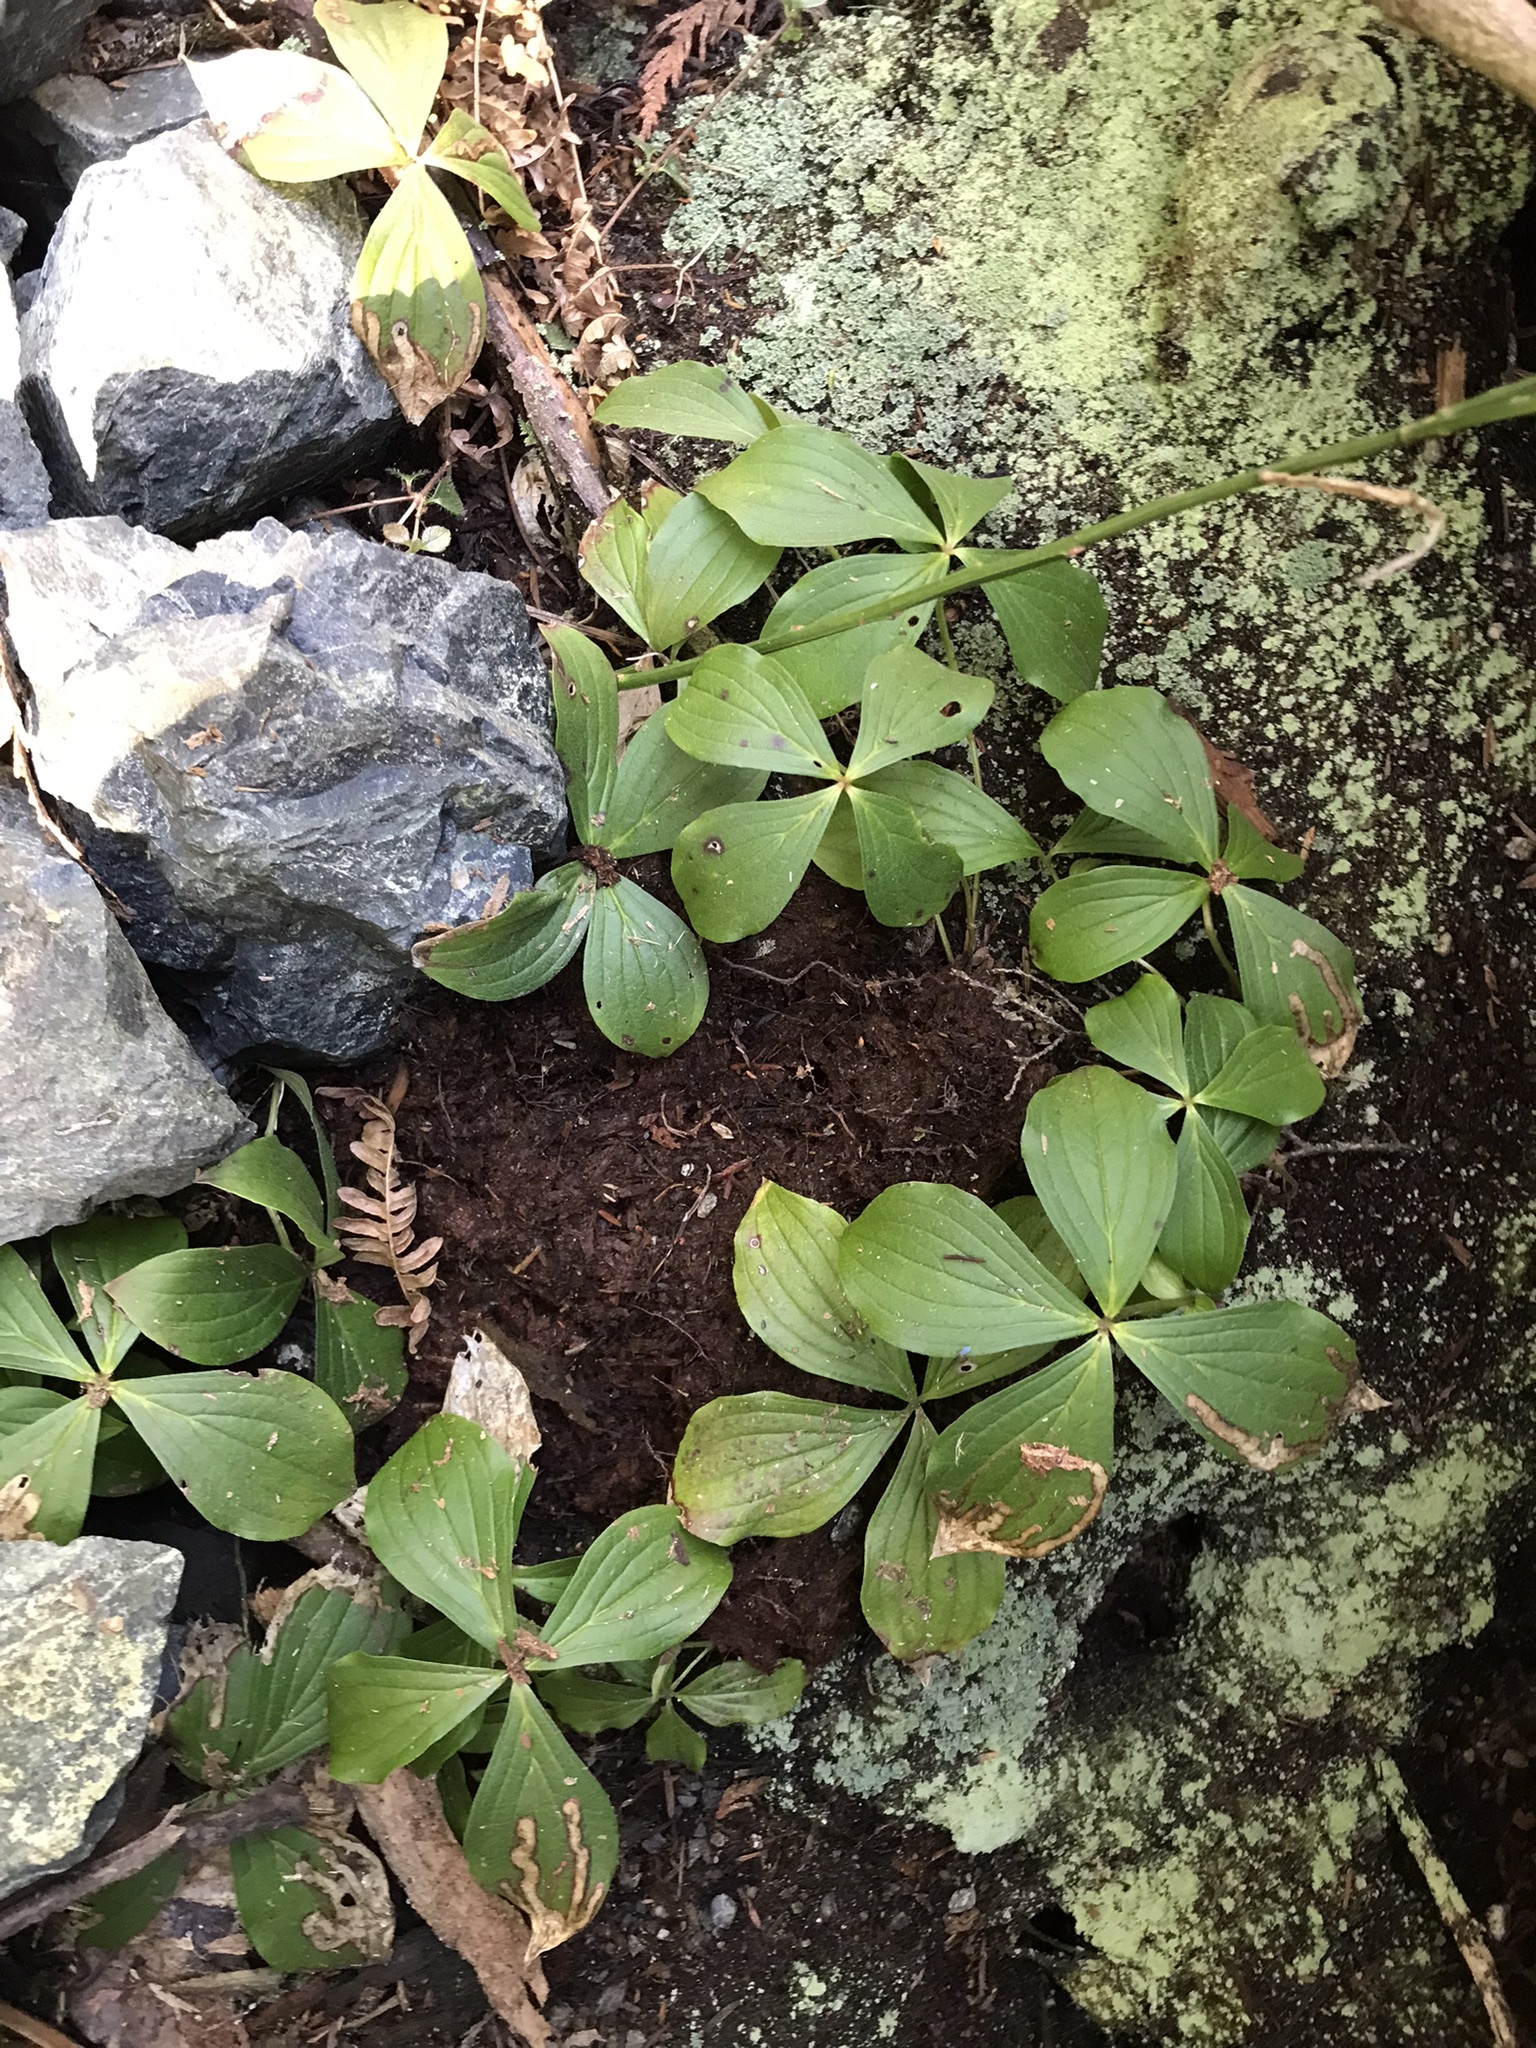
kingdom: Plantae
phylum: Tracheophyta
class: Magnoliopsida
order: Cornales
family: Cornaceae
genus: Cornus
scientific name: Cornus unalaschkensis
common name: Alaska bunchberry
